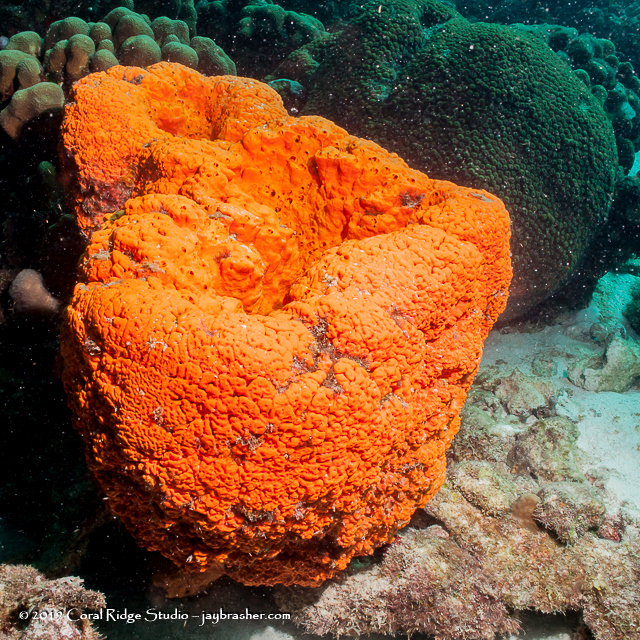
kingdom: Animalia
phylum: Porifera
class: Demospongiae
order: Agelasida
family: Agelasidae
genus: Agelas
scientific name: Agelas clathrodes
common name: Orange elephant ear sponge
